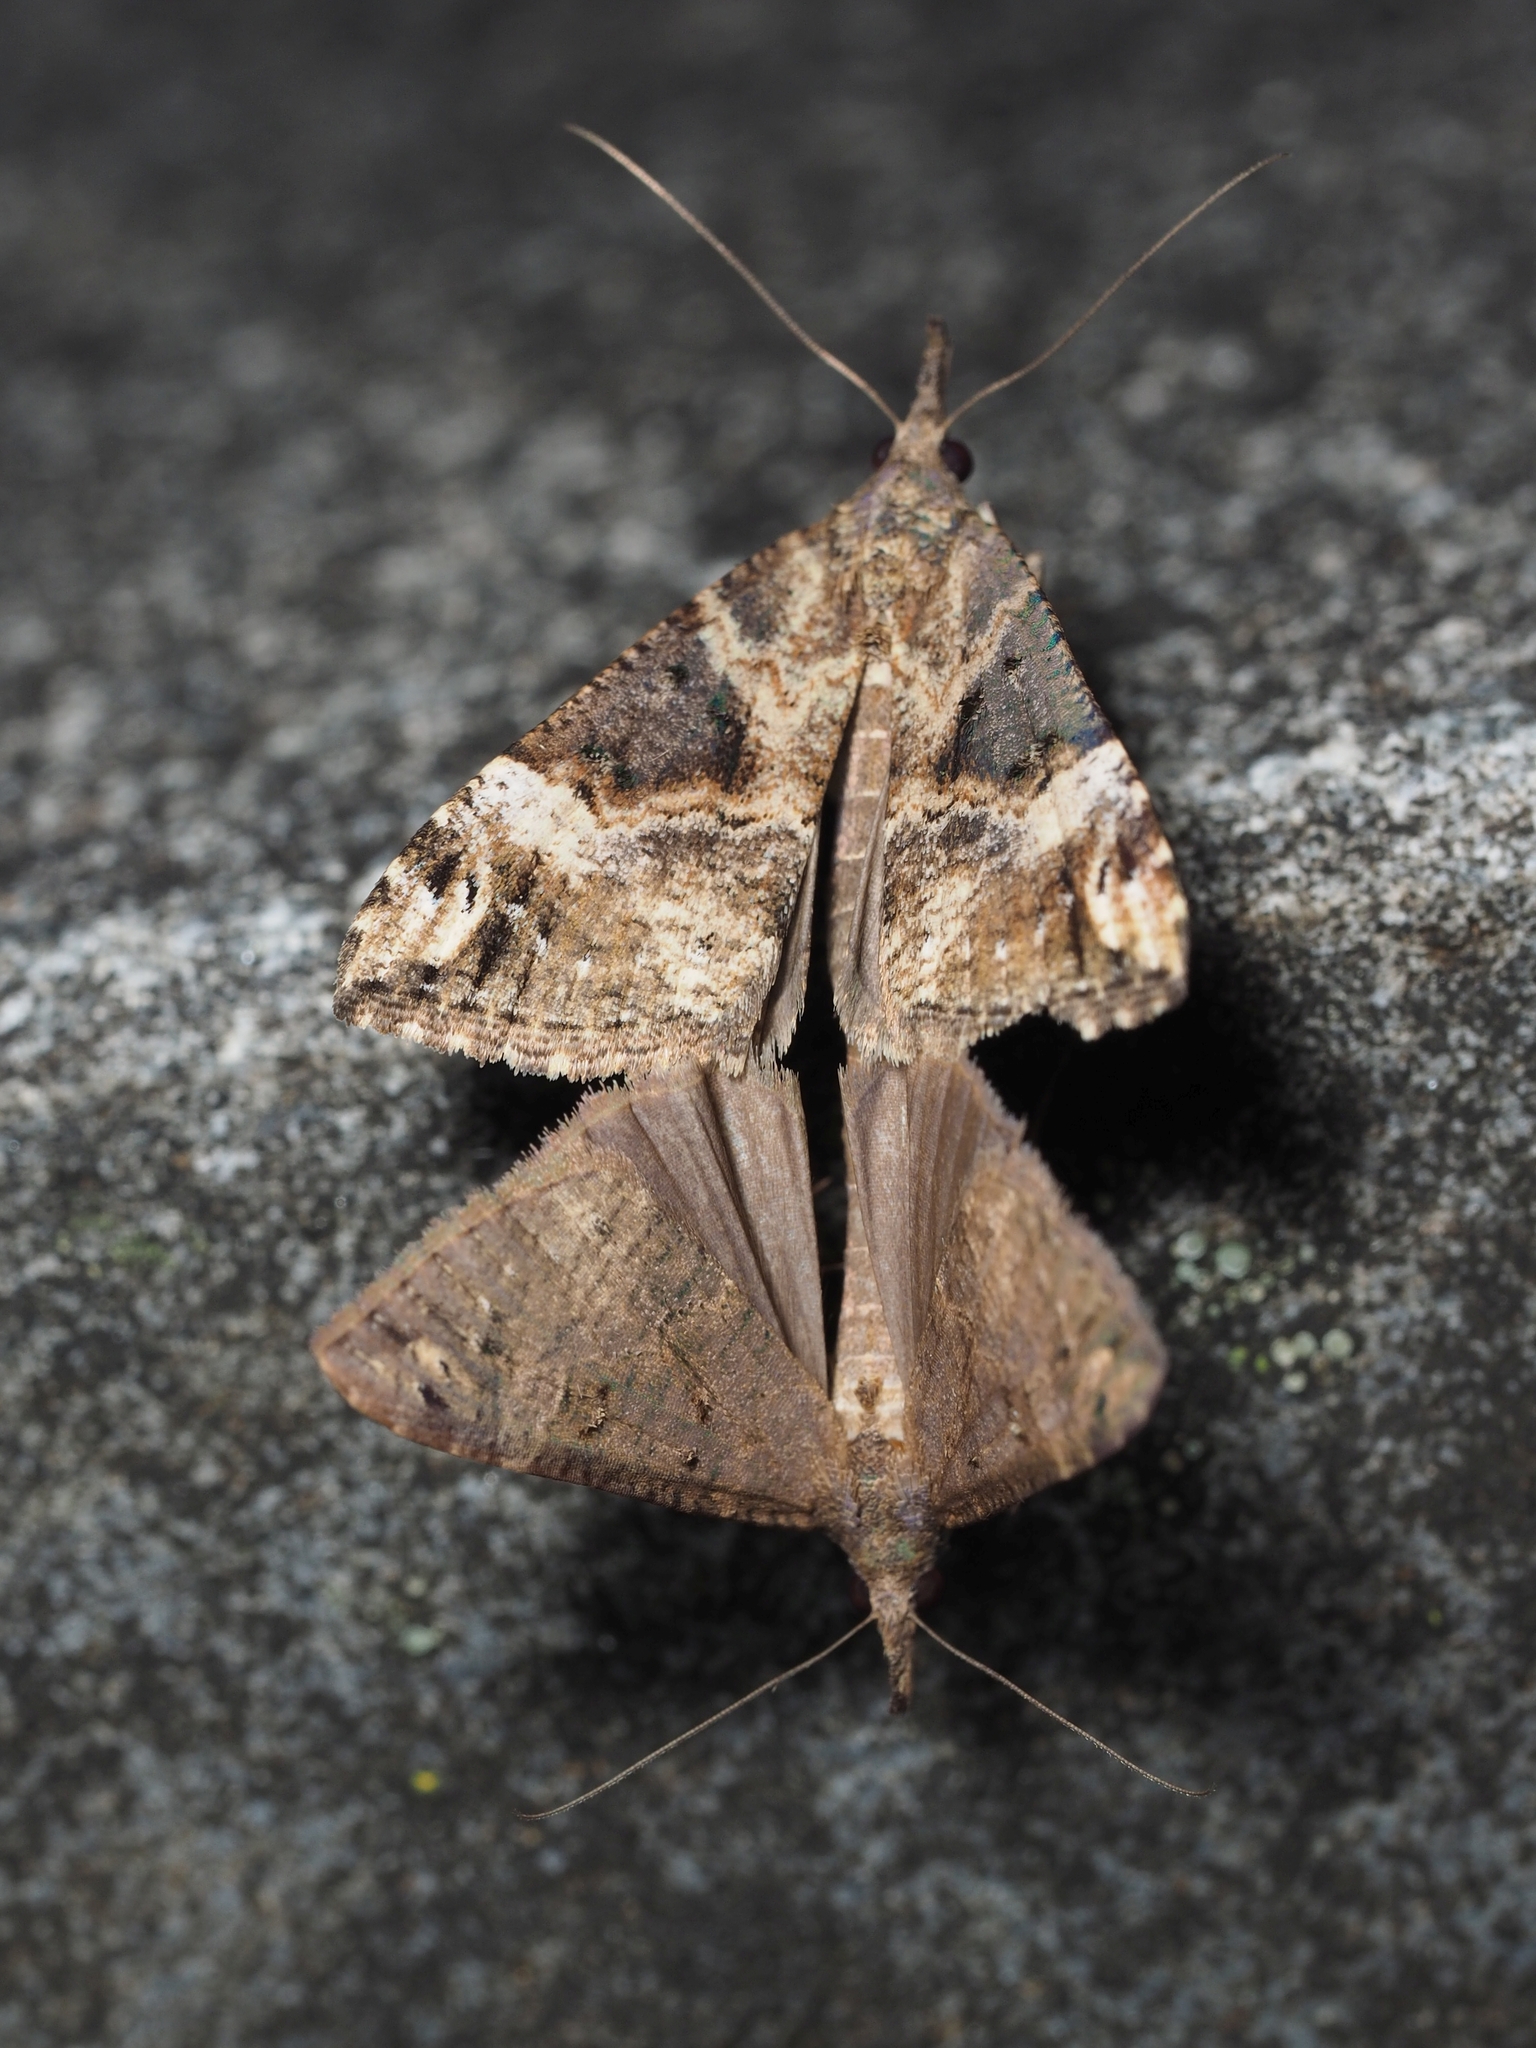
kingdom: Animalia
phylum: Arthropoda
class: Insecta
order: Lepidoptera
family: Erebidae
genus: Hypena
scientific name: Hypena obsitalis
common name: Bloxworth snout
